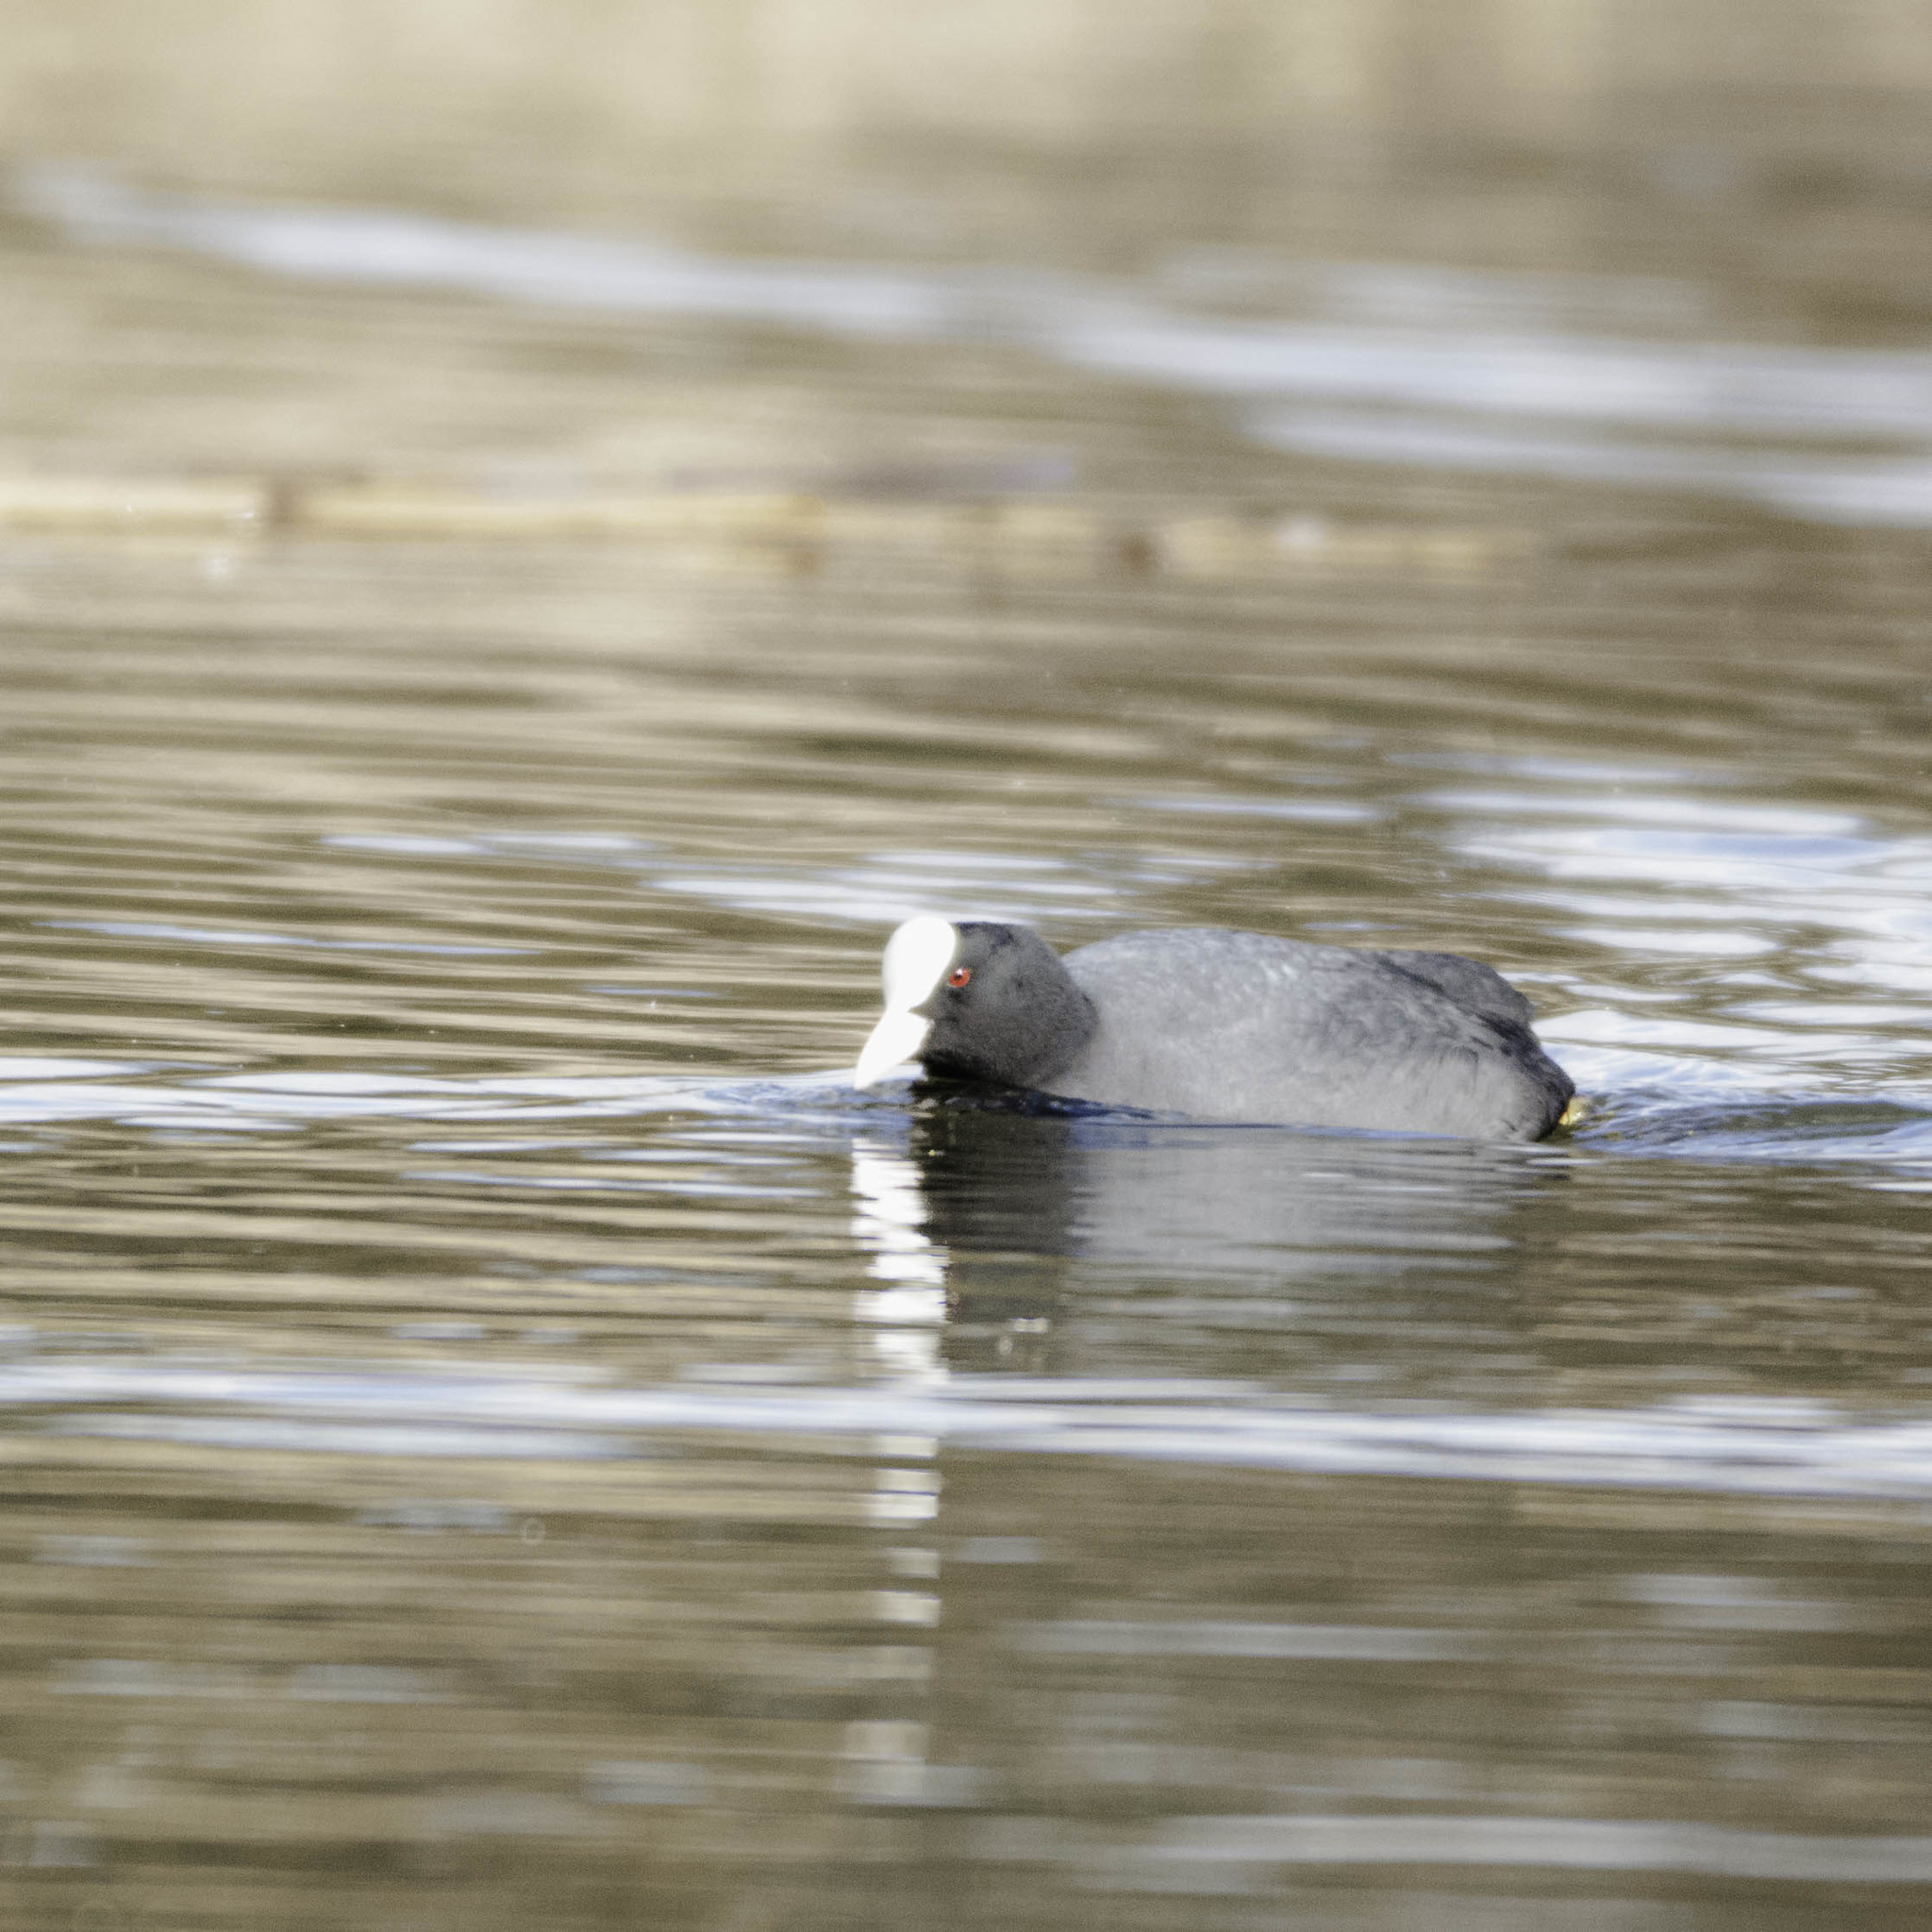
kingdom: Animalia
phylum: Chordata
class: Aves
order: Gruiformes
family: Rallidae
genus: Fulica
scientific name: Fulica atra
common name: Eurasian coot
